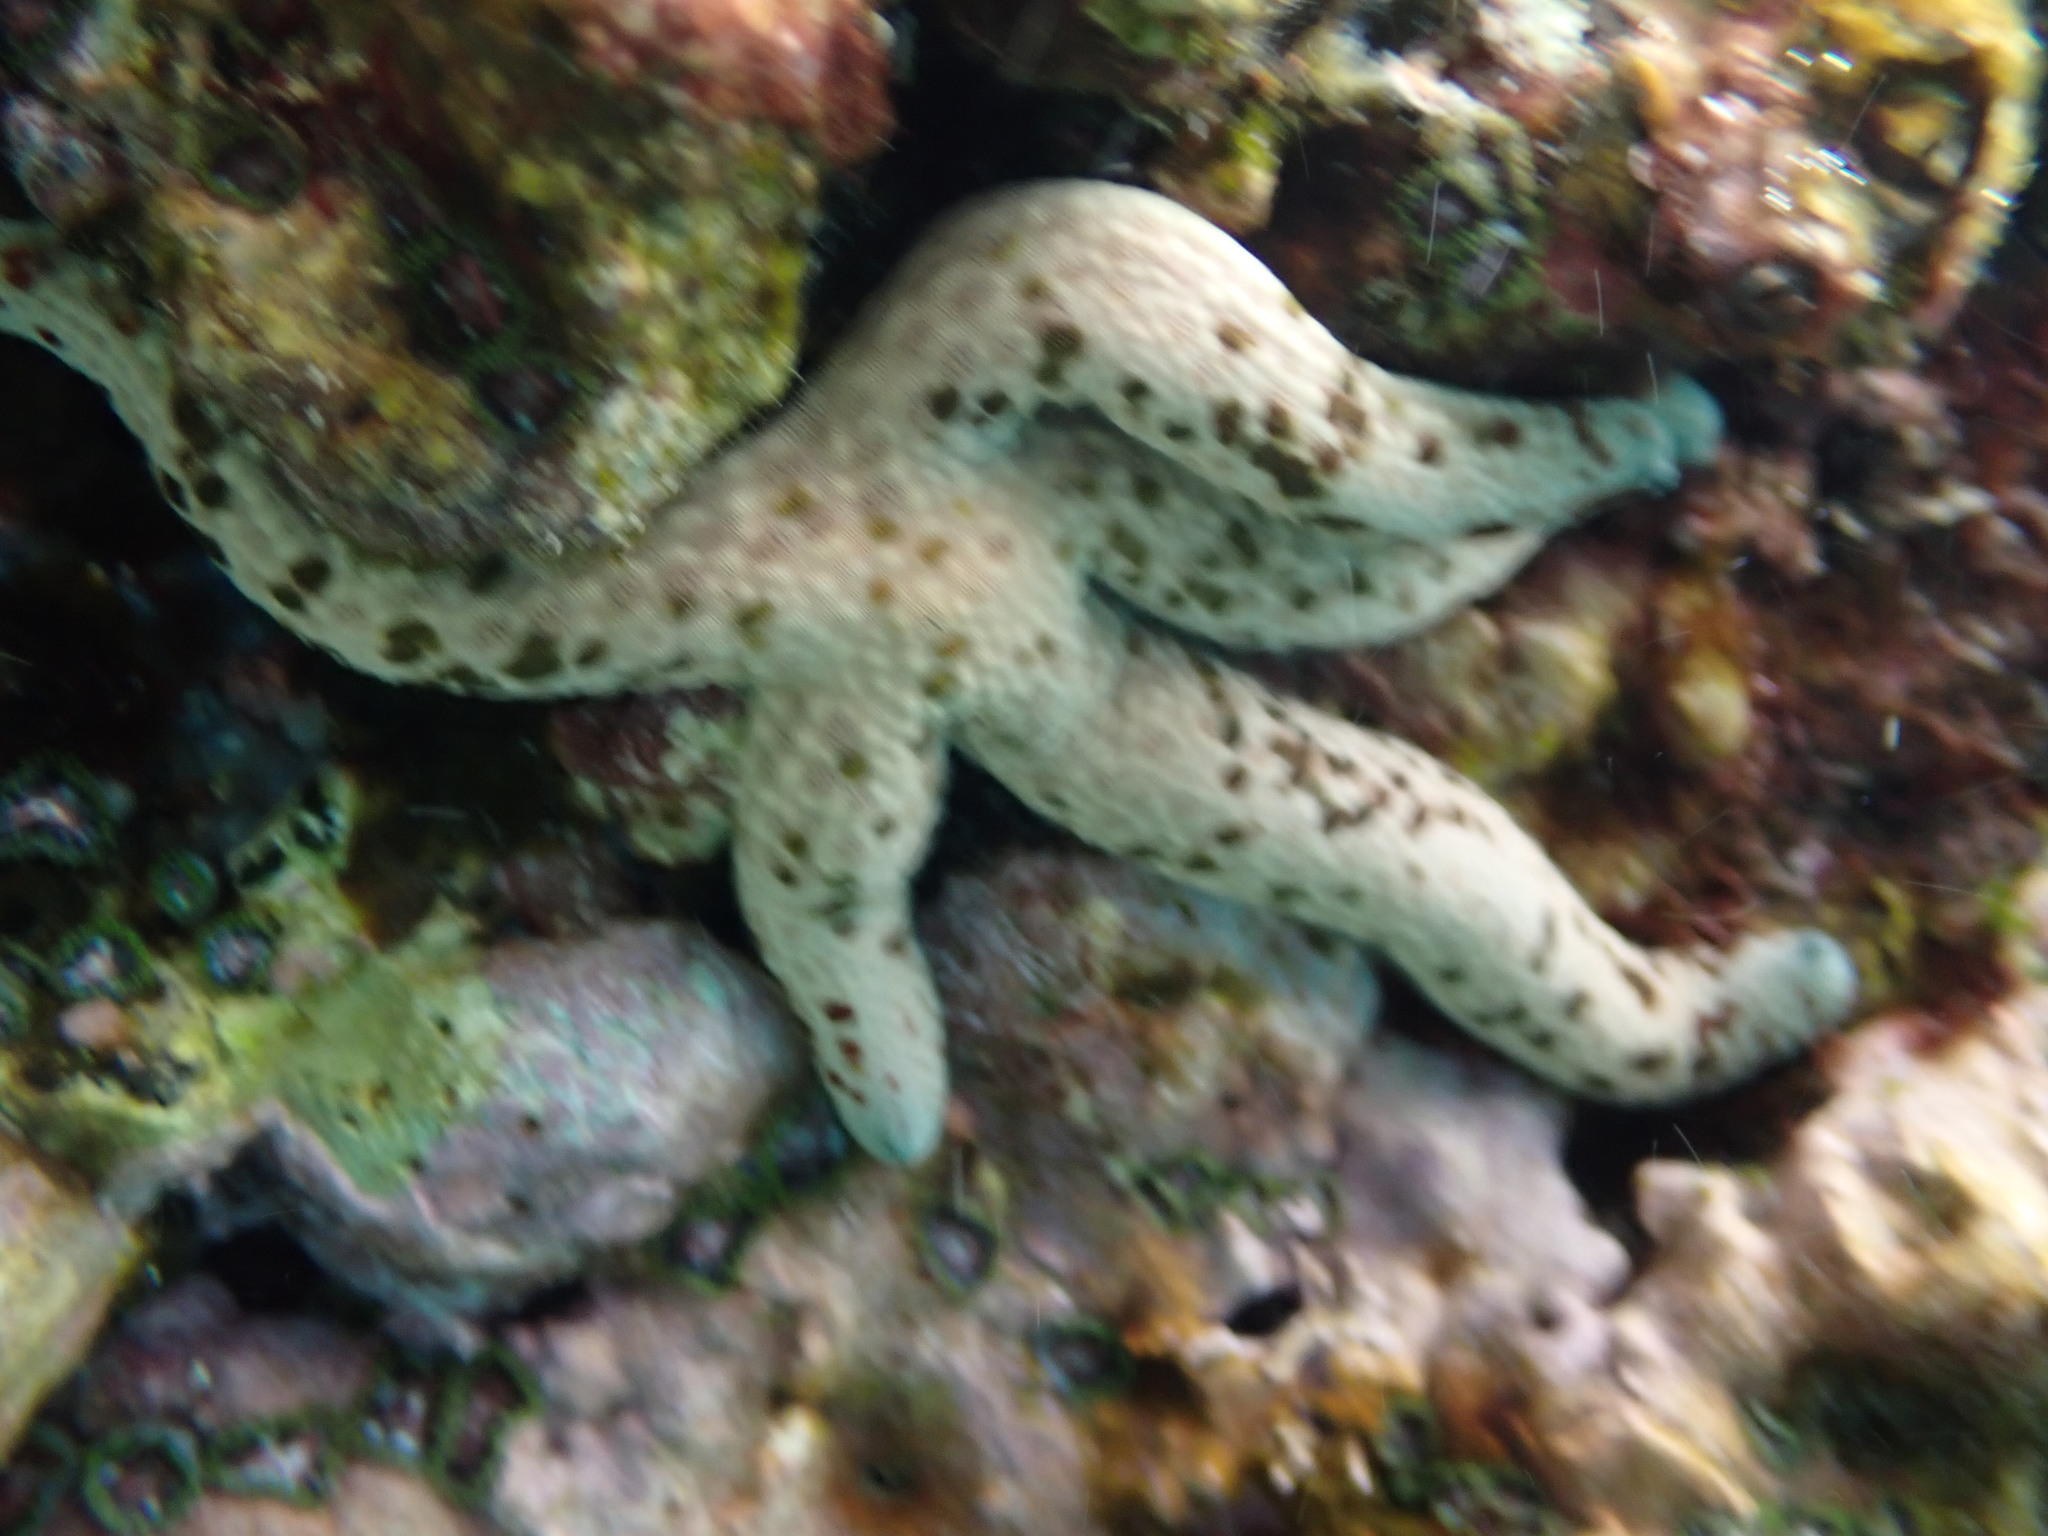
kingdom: Animalia
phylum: Echinodermata
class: Asteroidea
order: Valvatida
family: Ophidiasteridae
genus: Linckia
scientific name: Linckia multifora
